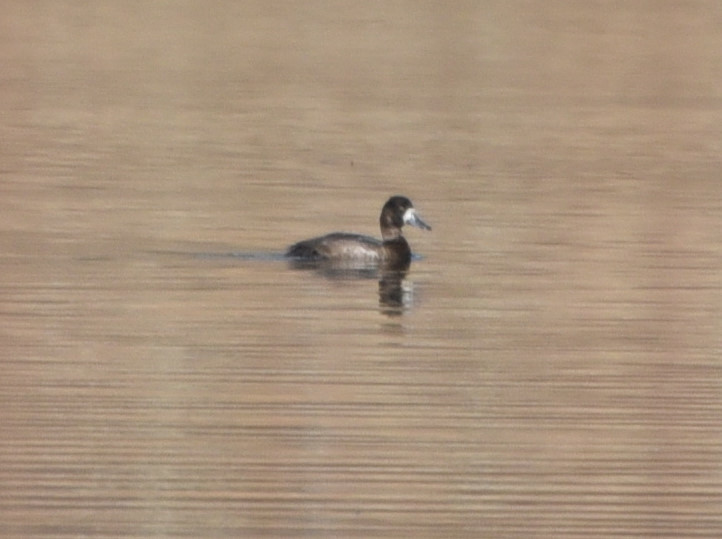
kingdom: Animalia
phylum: Chordata
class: Aves
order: Anseriformes
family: Anatidae
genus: Aythya
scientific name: Aythya affinis
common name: Lesser scaup
